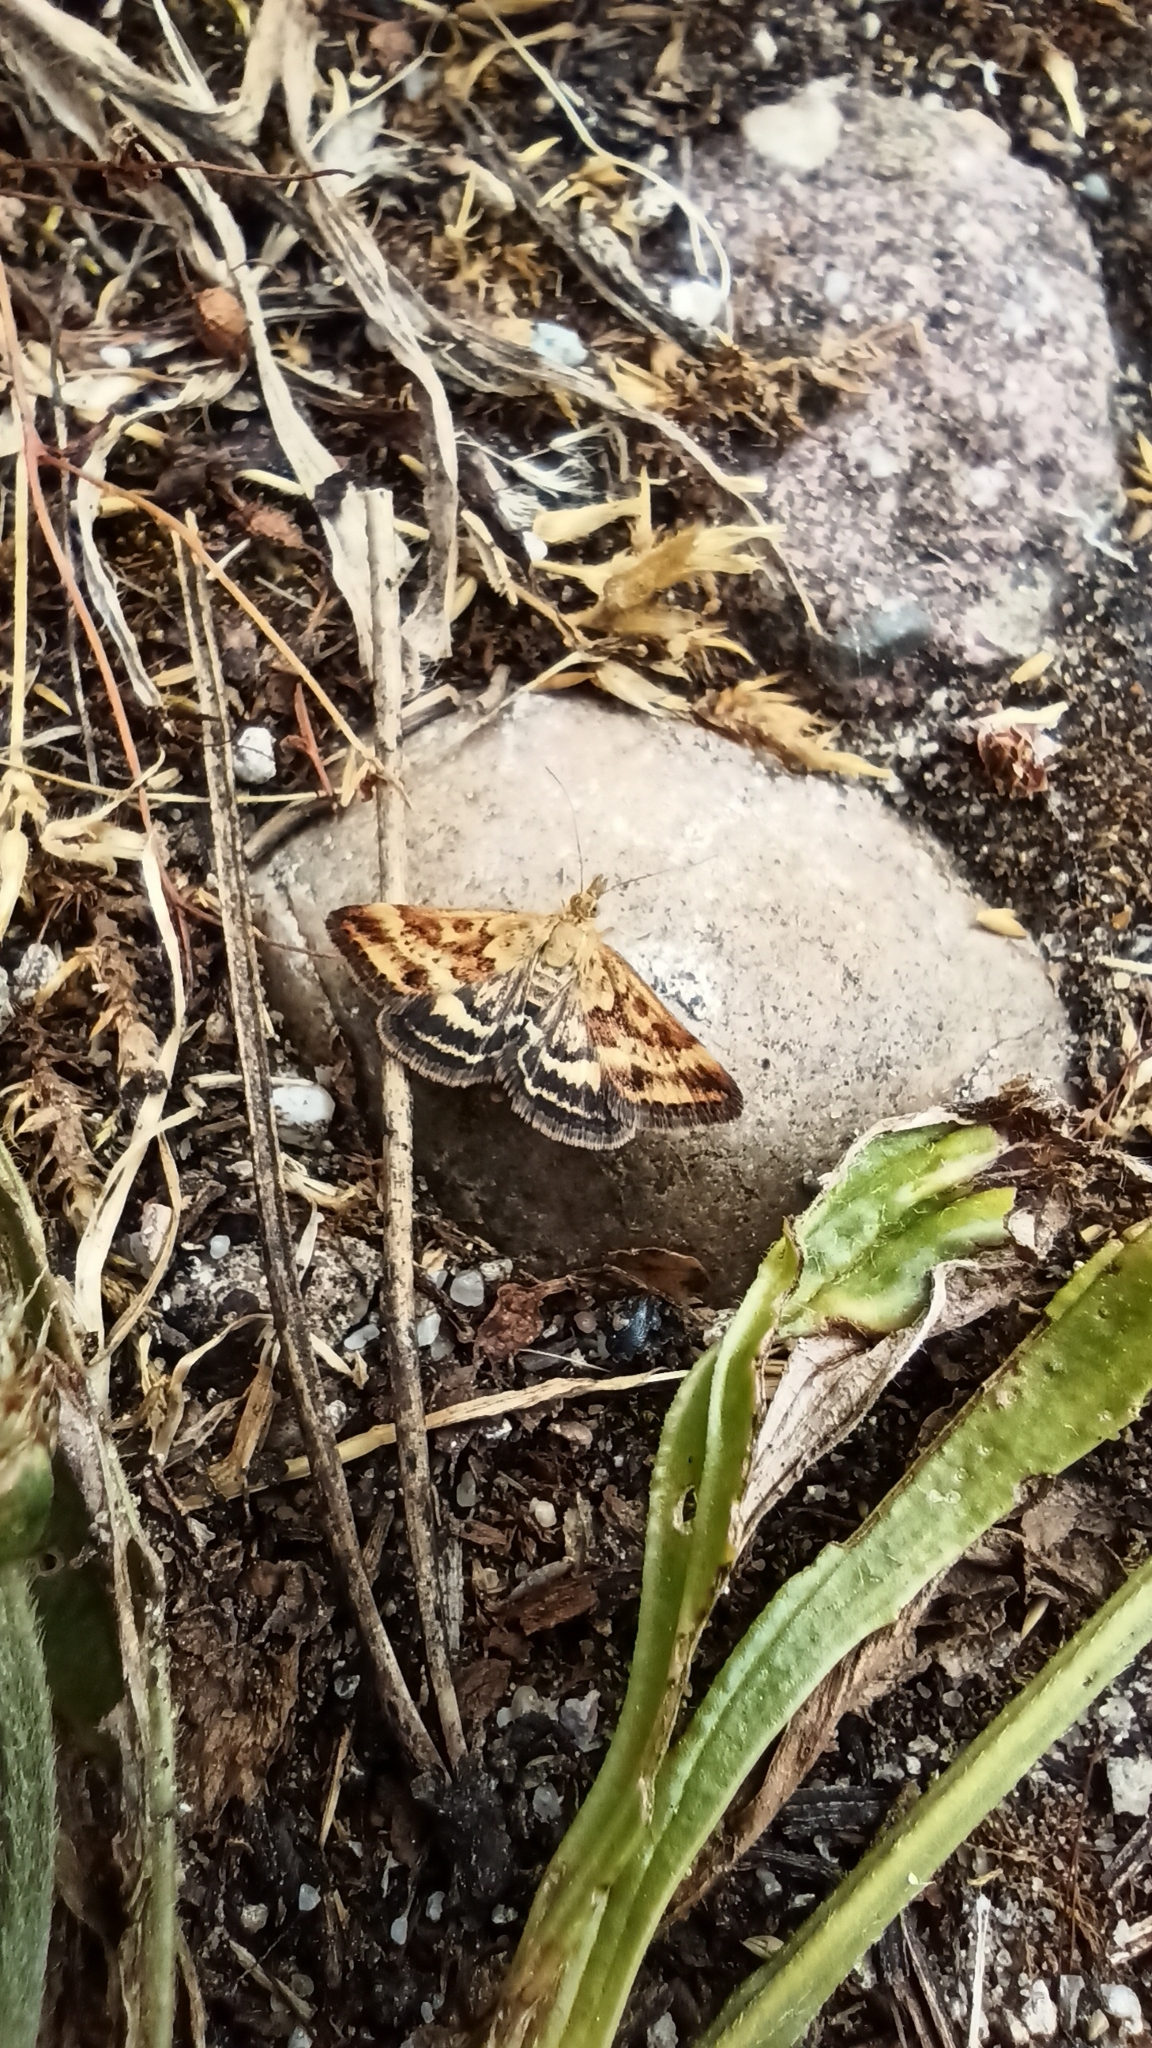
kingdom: Animalia
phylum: Arthropoda
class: Insecta
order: Lepidoptera
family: Crambidae
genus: Pyrausta
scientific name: Pyrausta despicata
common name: Straw-barred pearl
